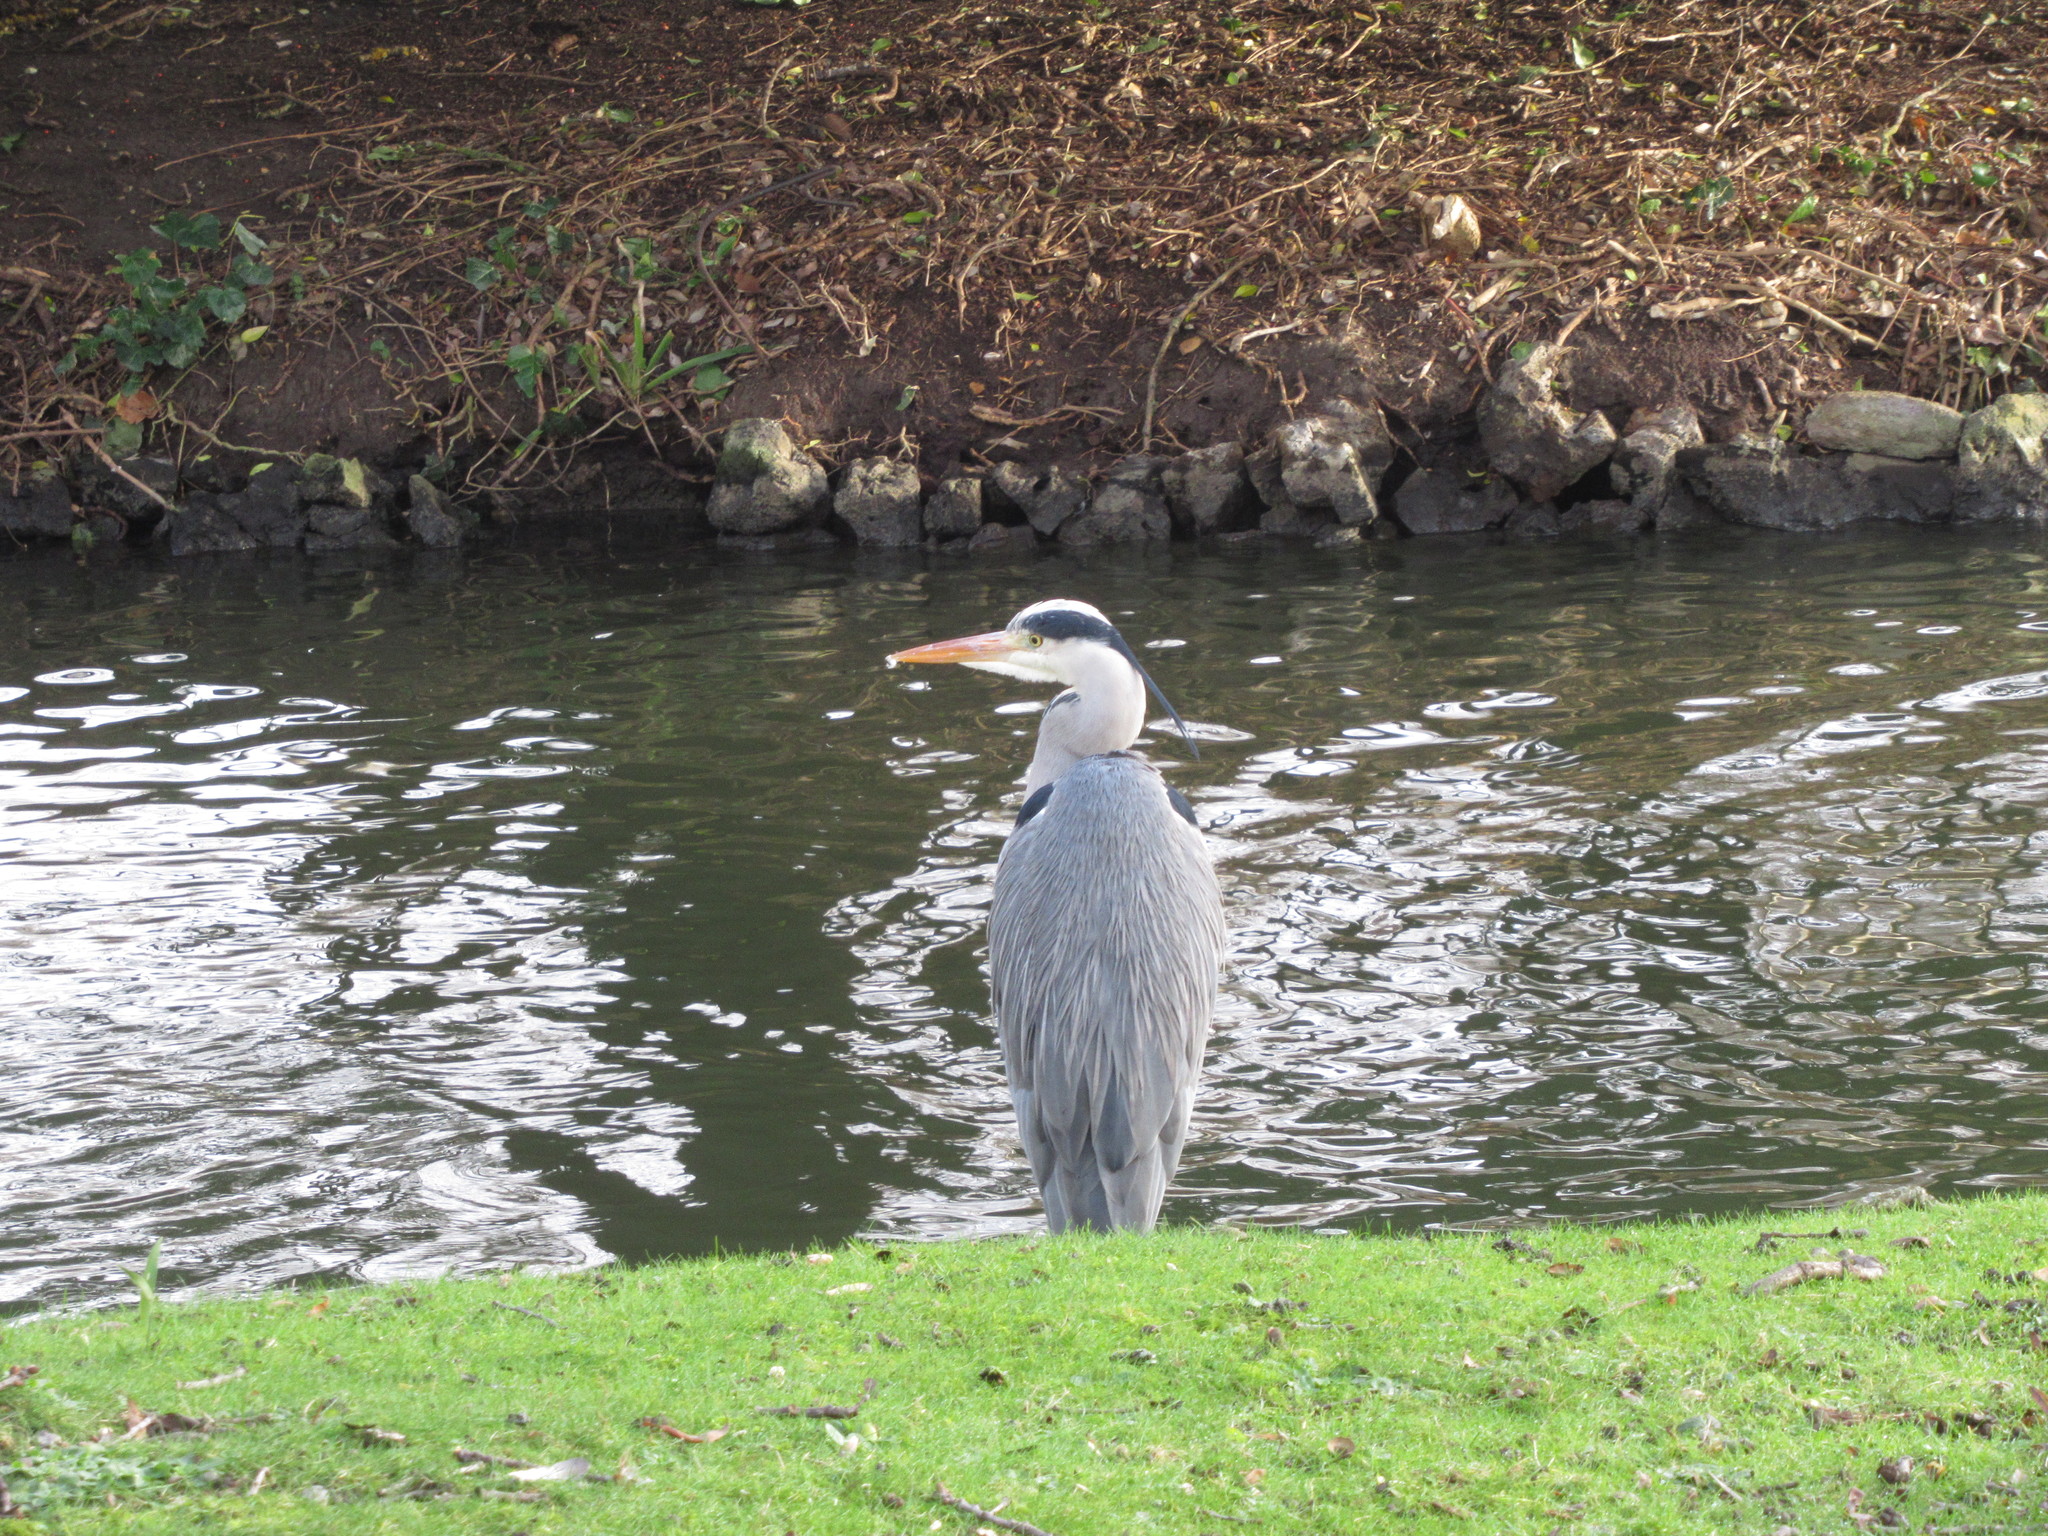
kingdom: Animalia
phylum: Chordata
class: Aves
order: Pelecaniformes
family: Ardeidae
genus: Ardea
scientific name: Ardea cinerea
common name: Grey heron
